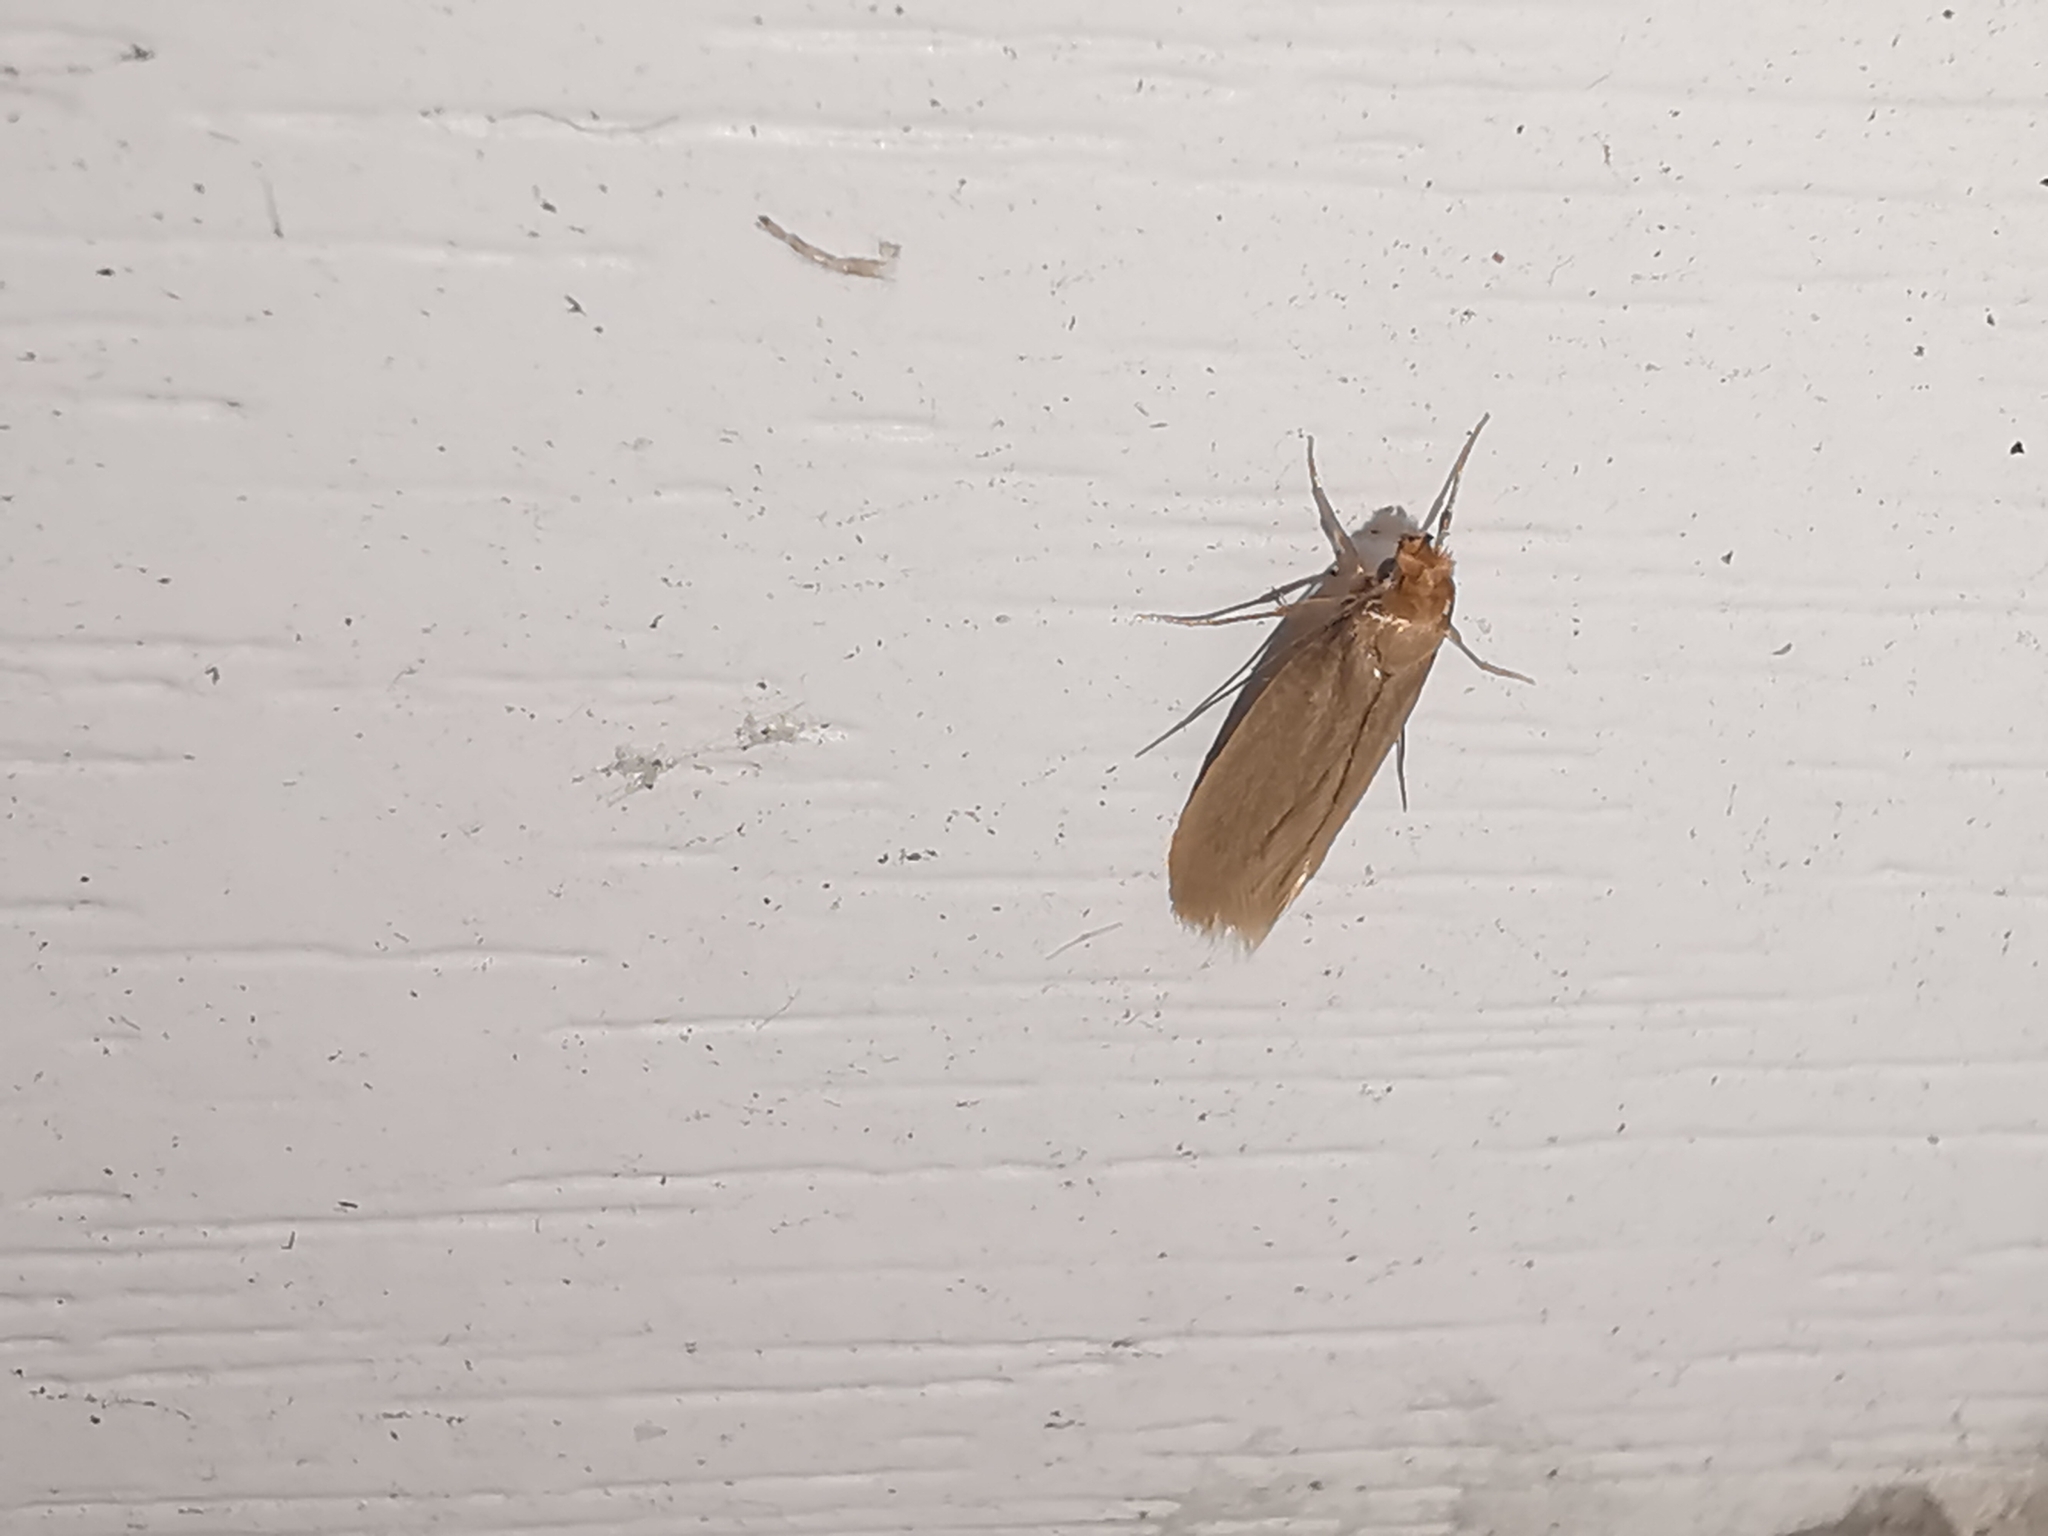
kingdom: Animalia
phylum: Arthropoda
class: Insecta
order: Lepidoptera
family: Tineidae
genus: Tineola
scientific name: Tineola bisselliella
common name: Webbing clothes moth
